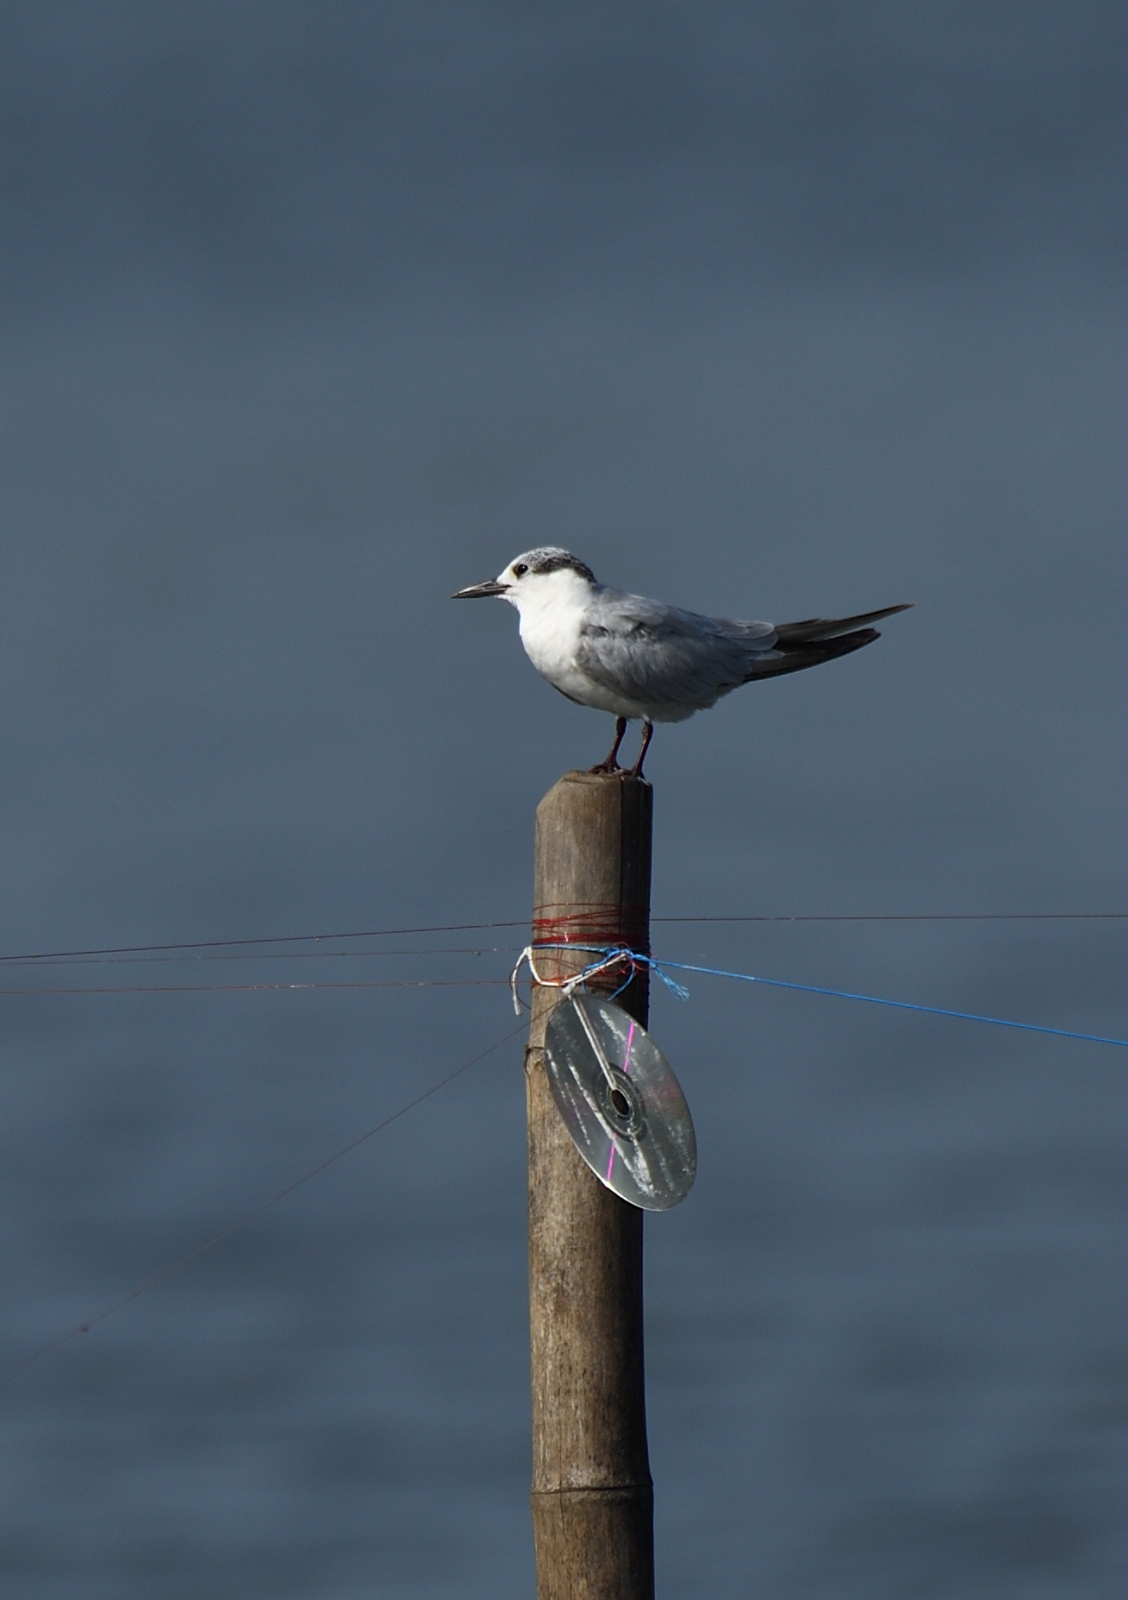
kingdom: Animalia
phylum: Chordata
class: Aves
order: Charadriiformes
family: Laridae
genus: Chlidonias
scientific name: Chlidonias hybrida
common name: Whiskered tern
